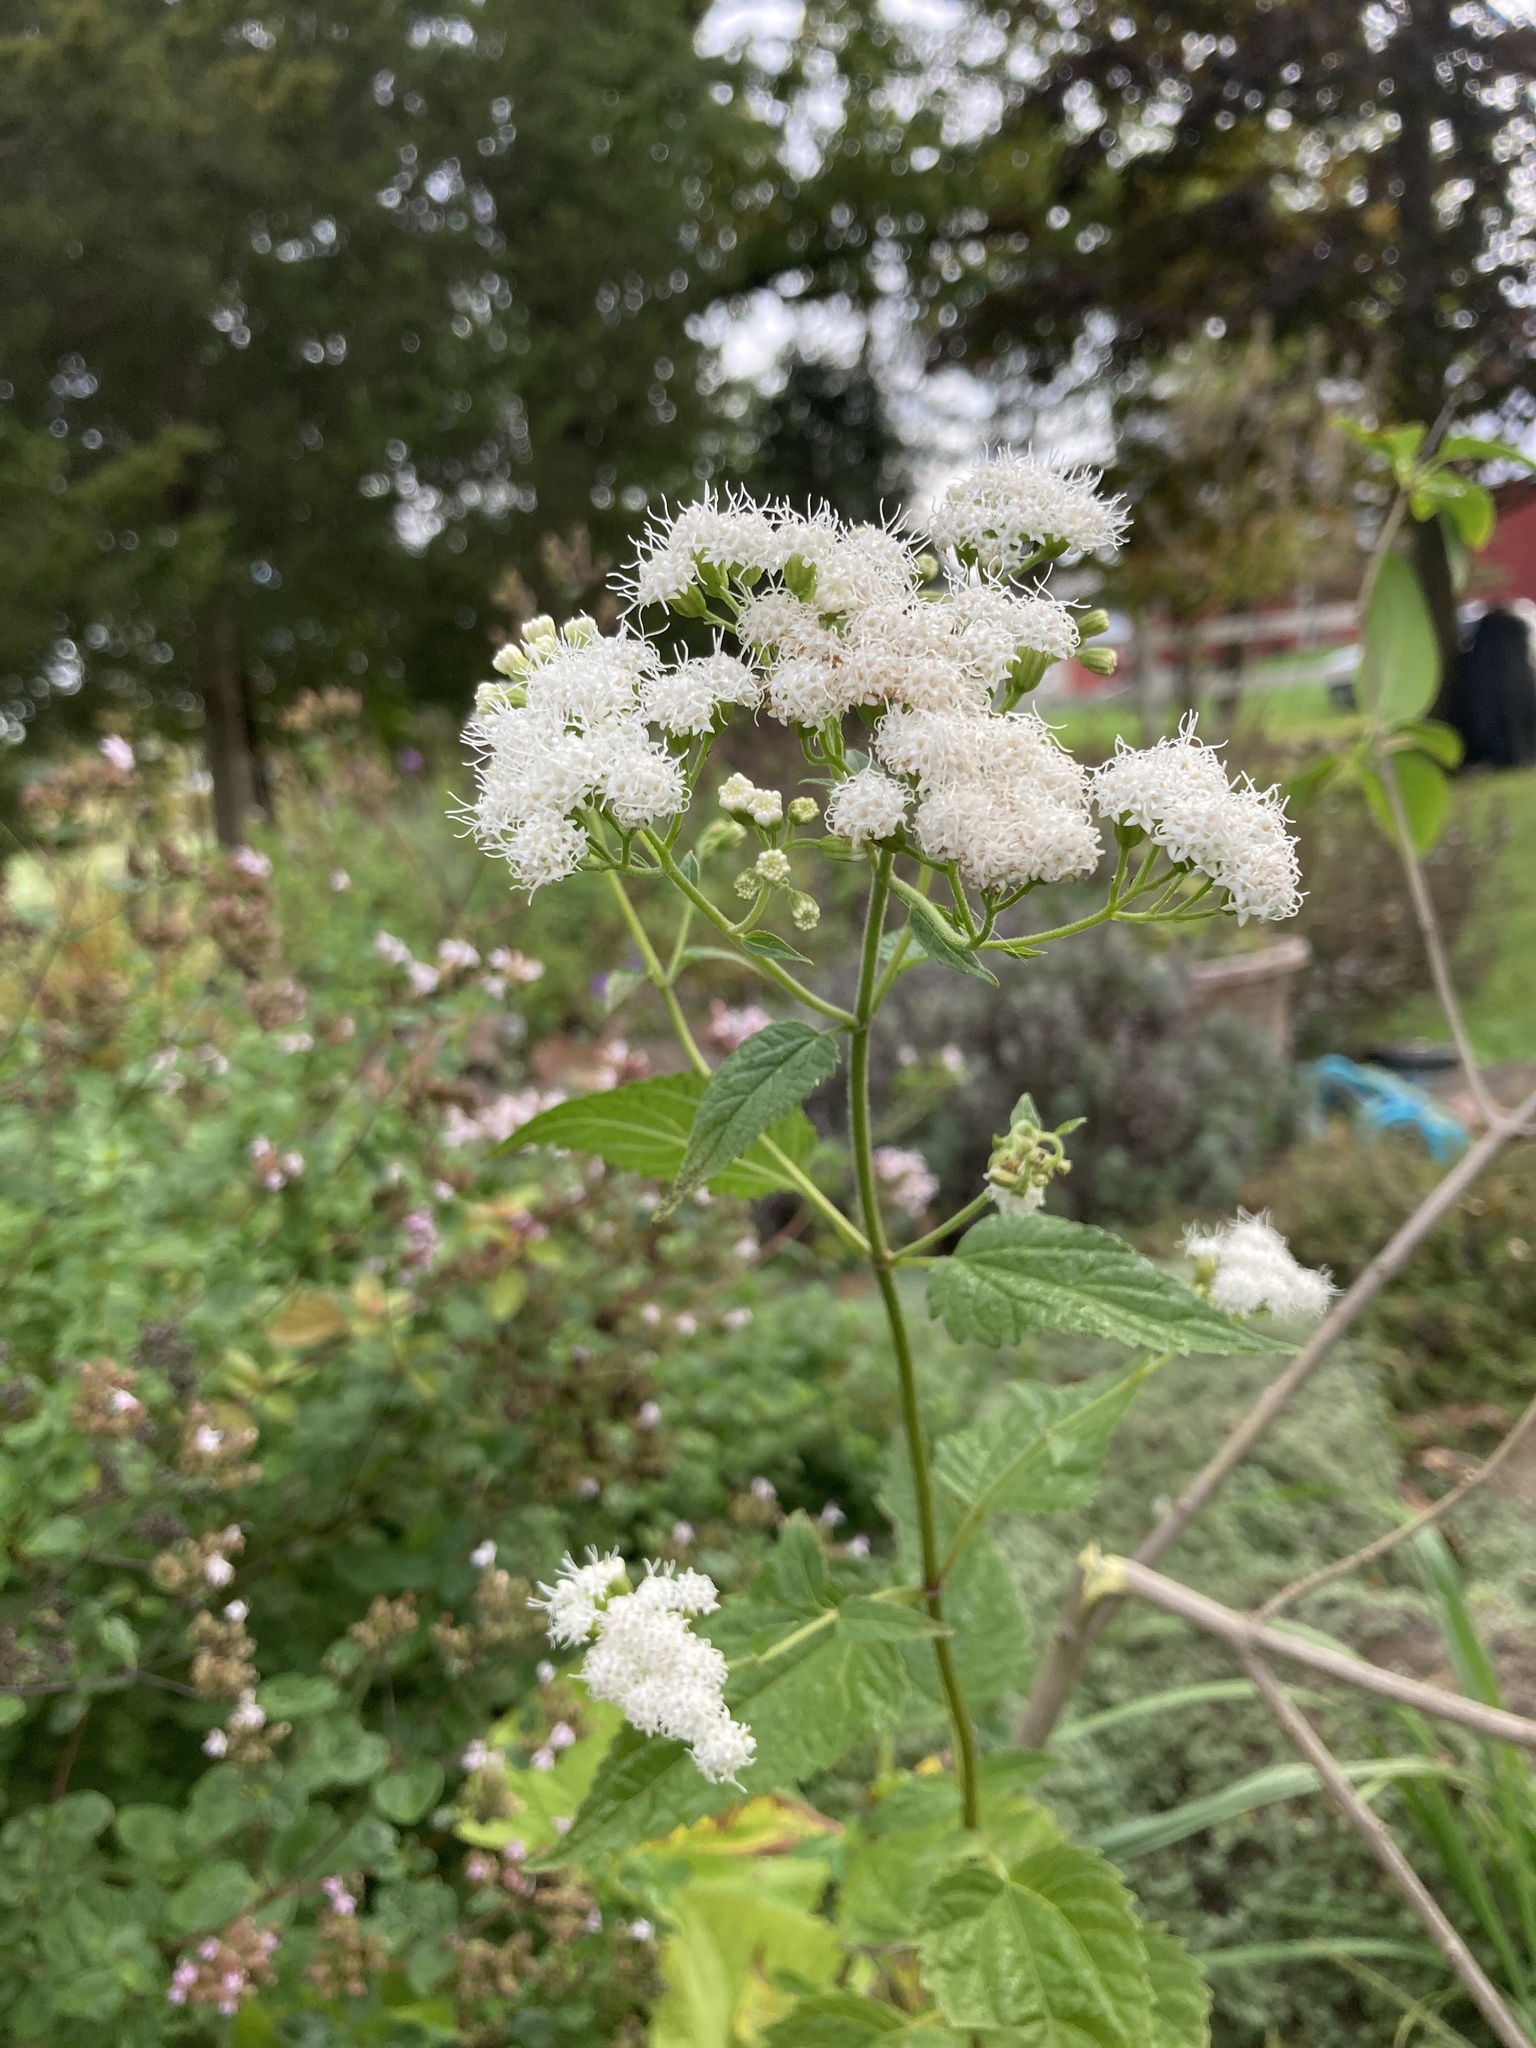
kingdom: Plantae
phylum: Tracheophyta
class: Magnoliopsida
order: Asterales
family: Asteraceae
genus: Ageratina
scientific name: Ageratina altissima
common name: White snakeroot
